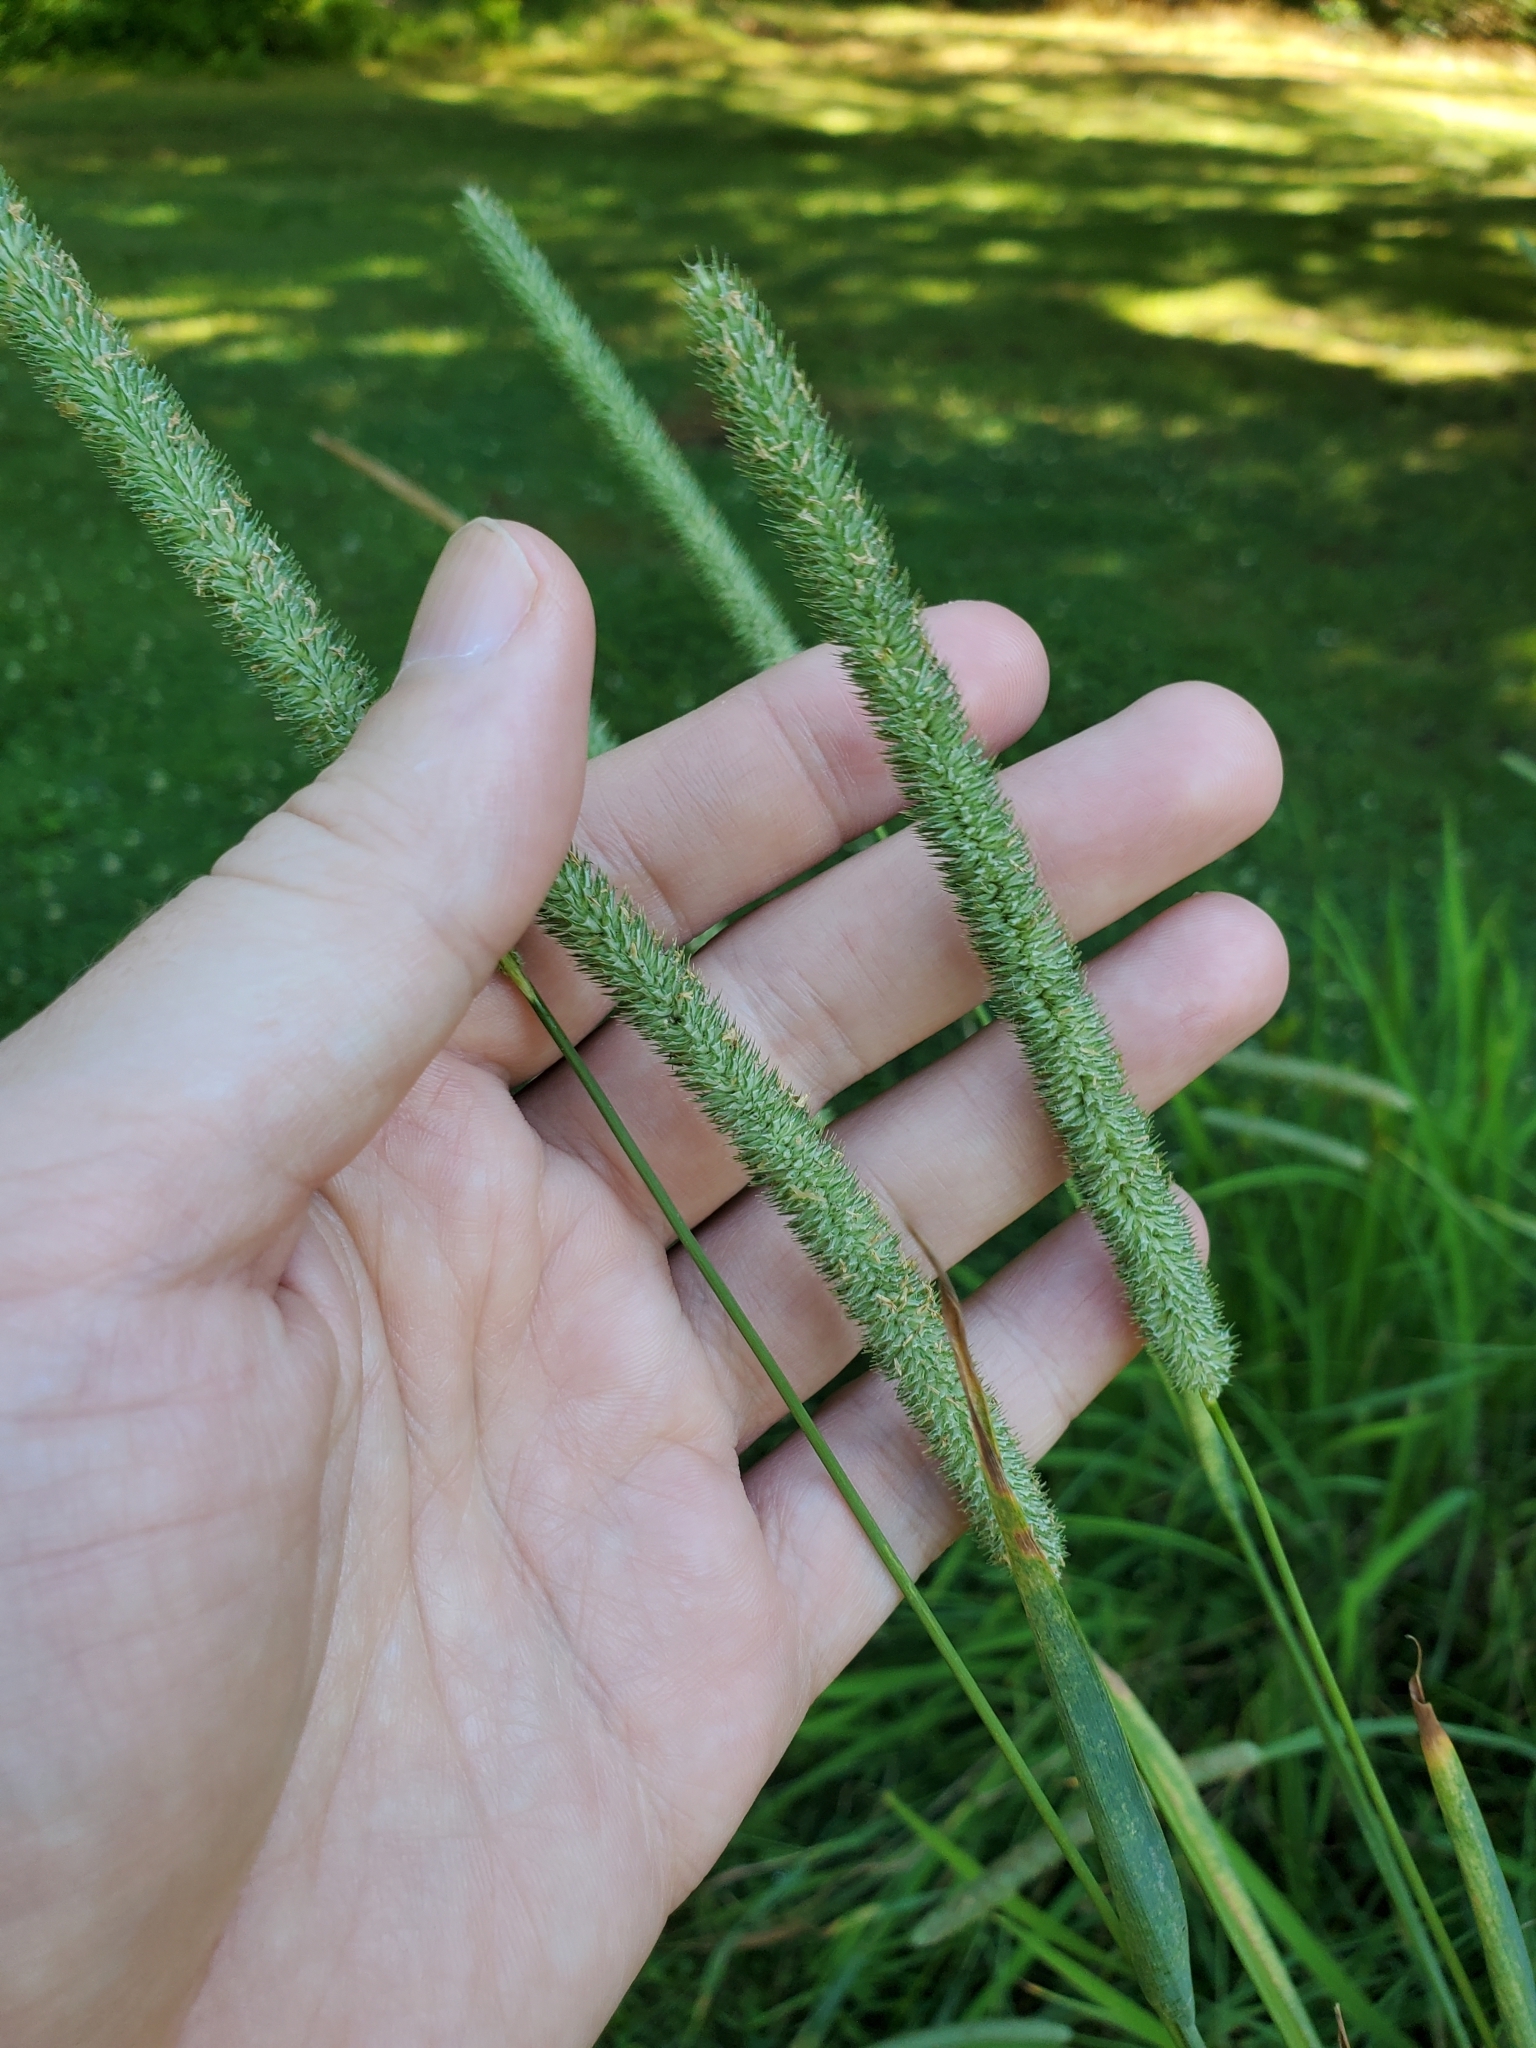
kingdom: Plantae
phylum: Tracheophyta
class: Liliopsida
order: Poales
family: Poaceae
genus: Phleum
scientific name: Phleum pratense
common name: Timothy grass
